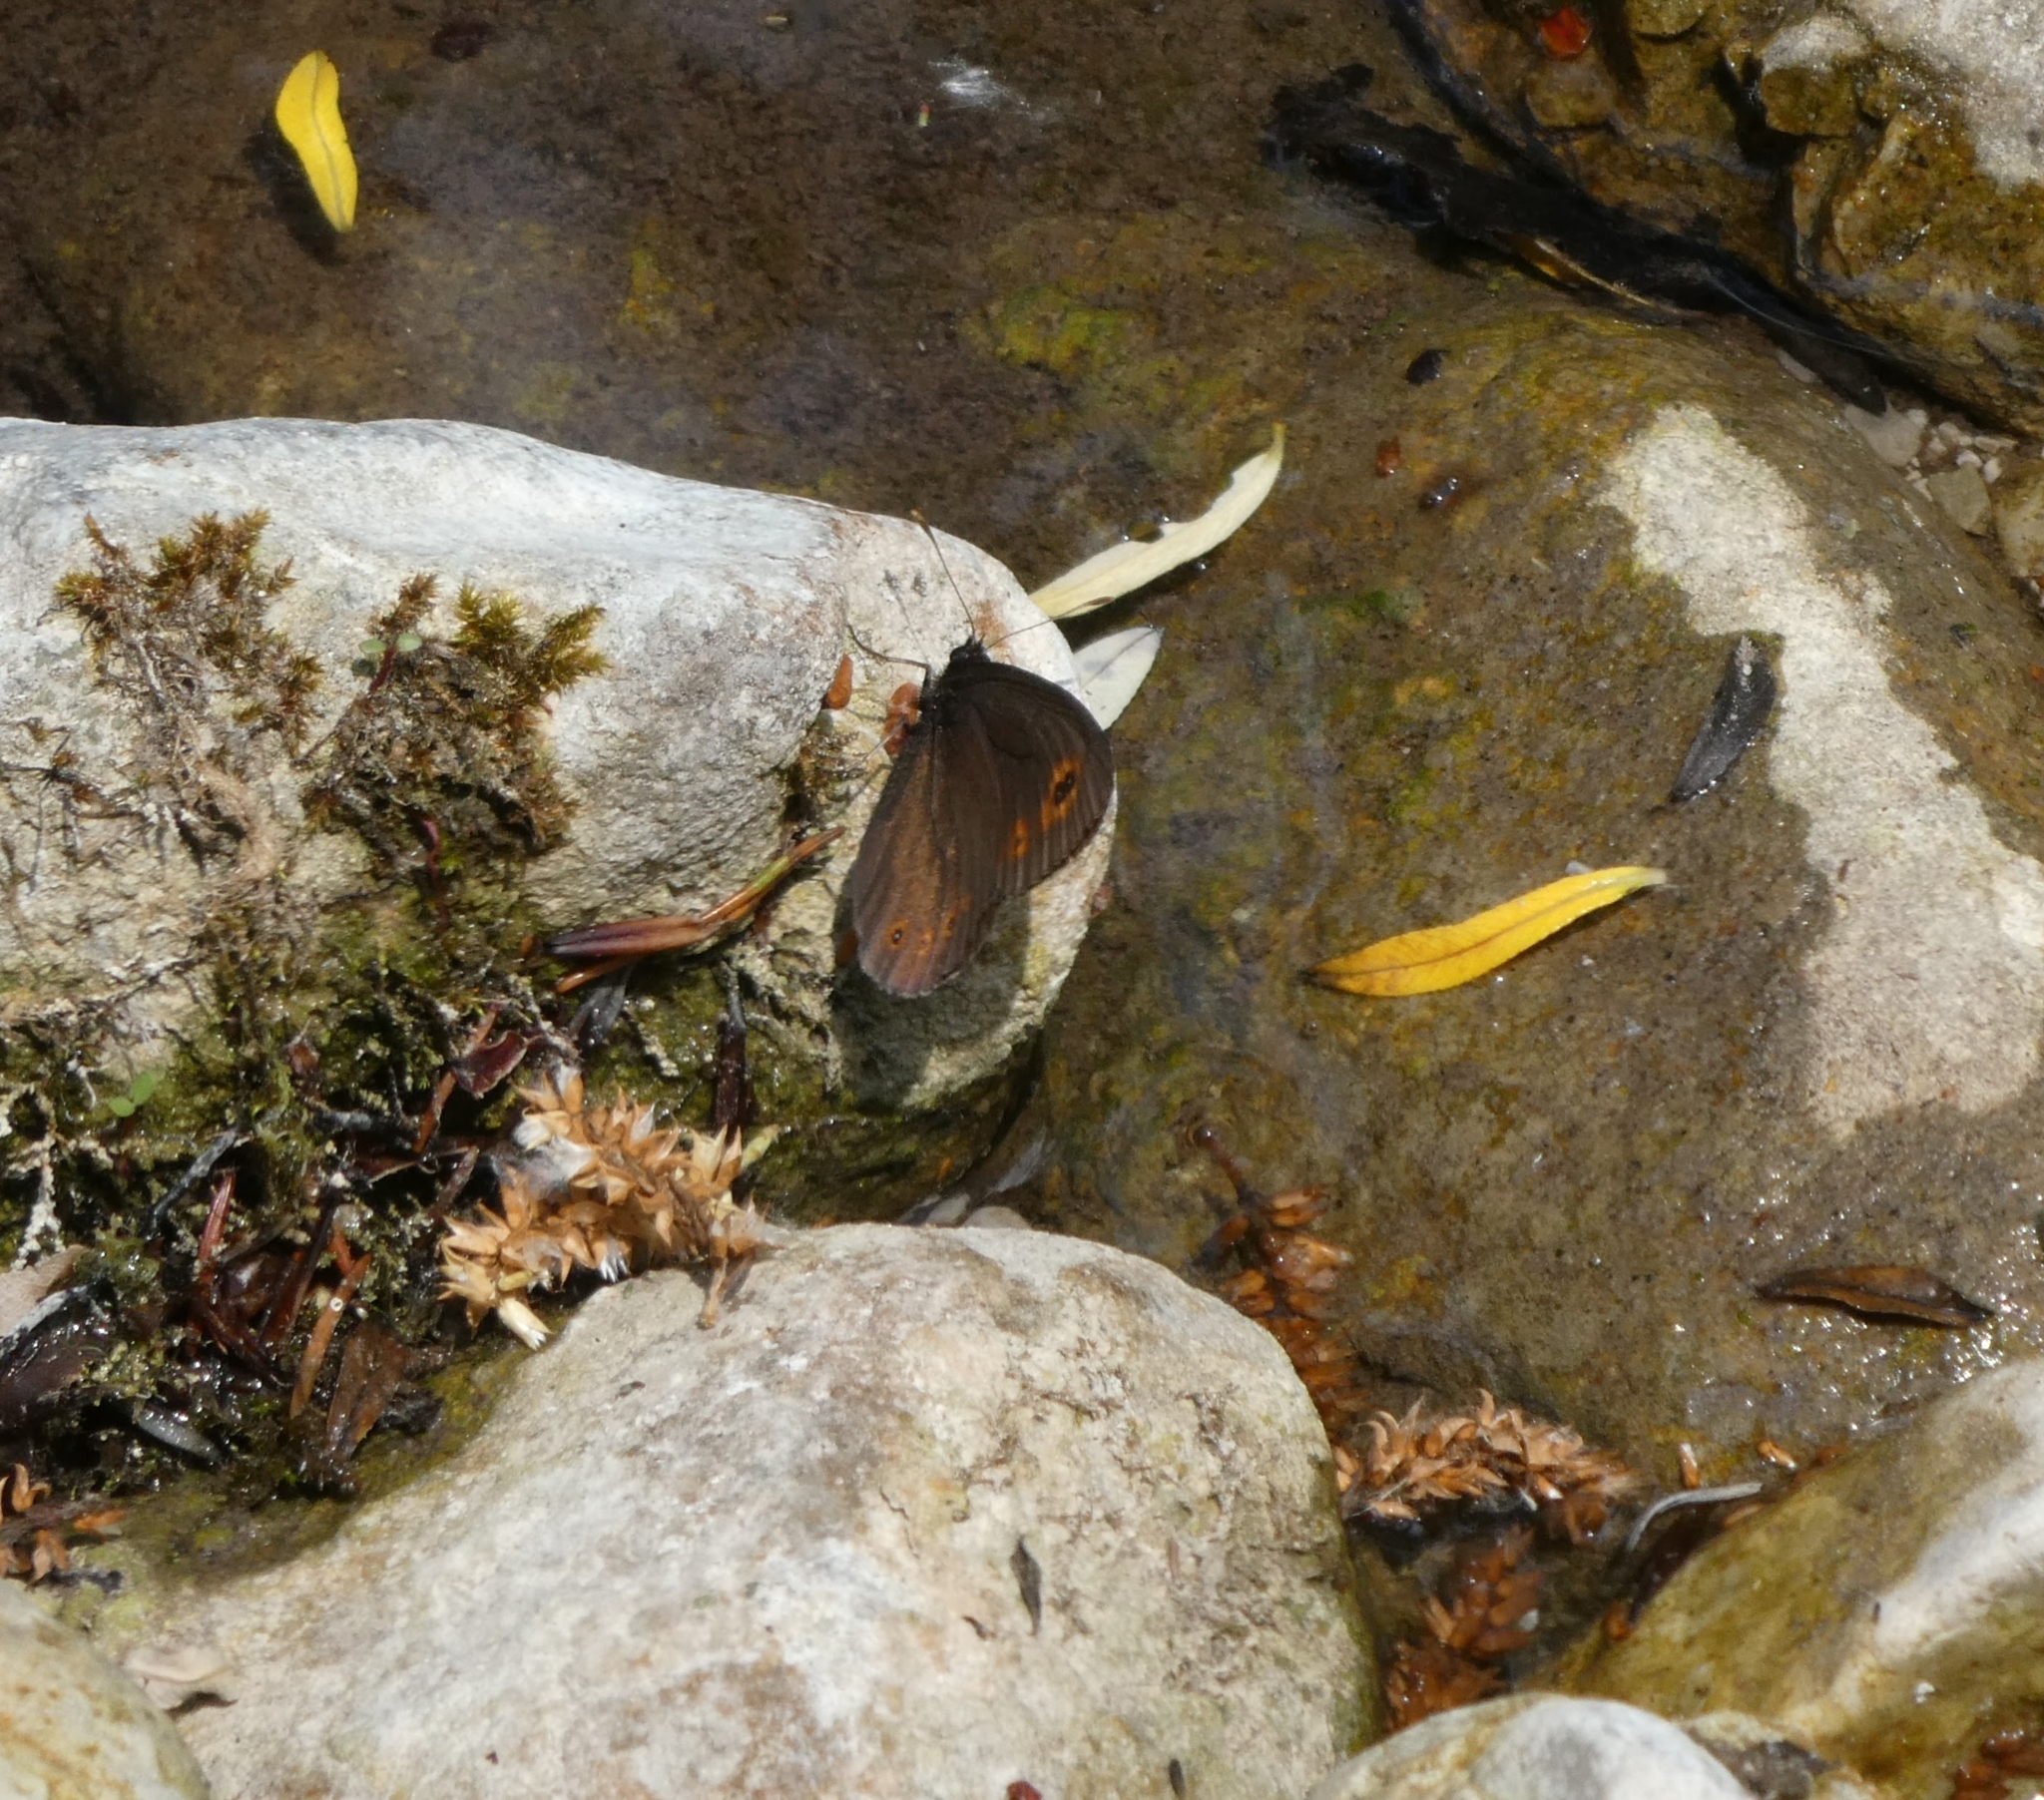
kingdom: Animalia
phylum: Arthropoda
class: Insecta
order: Lepidoptera
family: Nymphalidae
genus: Erebia
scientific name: Erebia medusa
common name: Woodland ringlet
